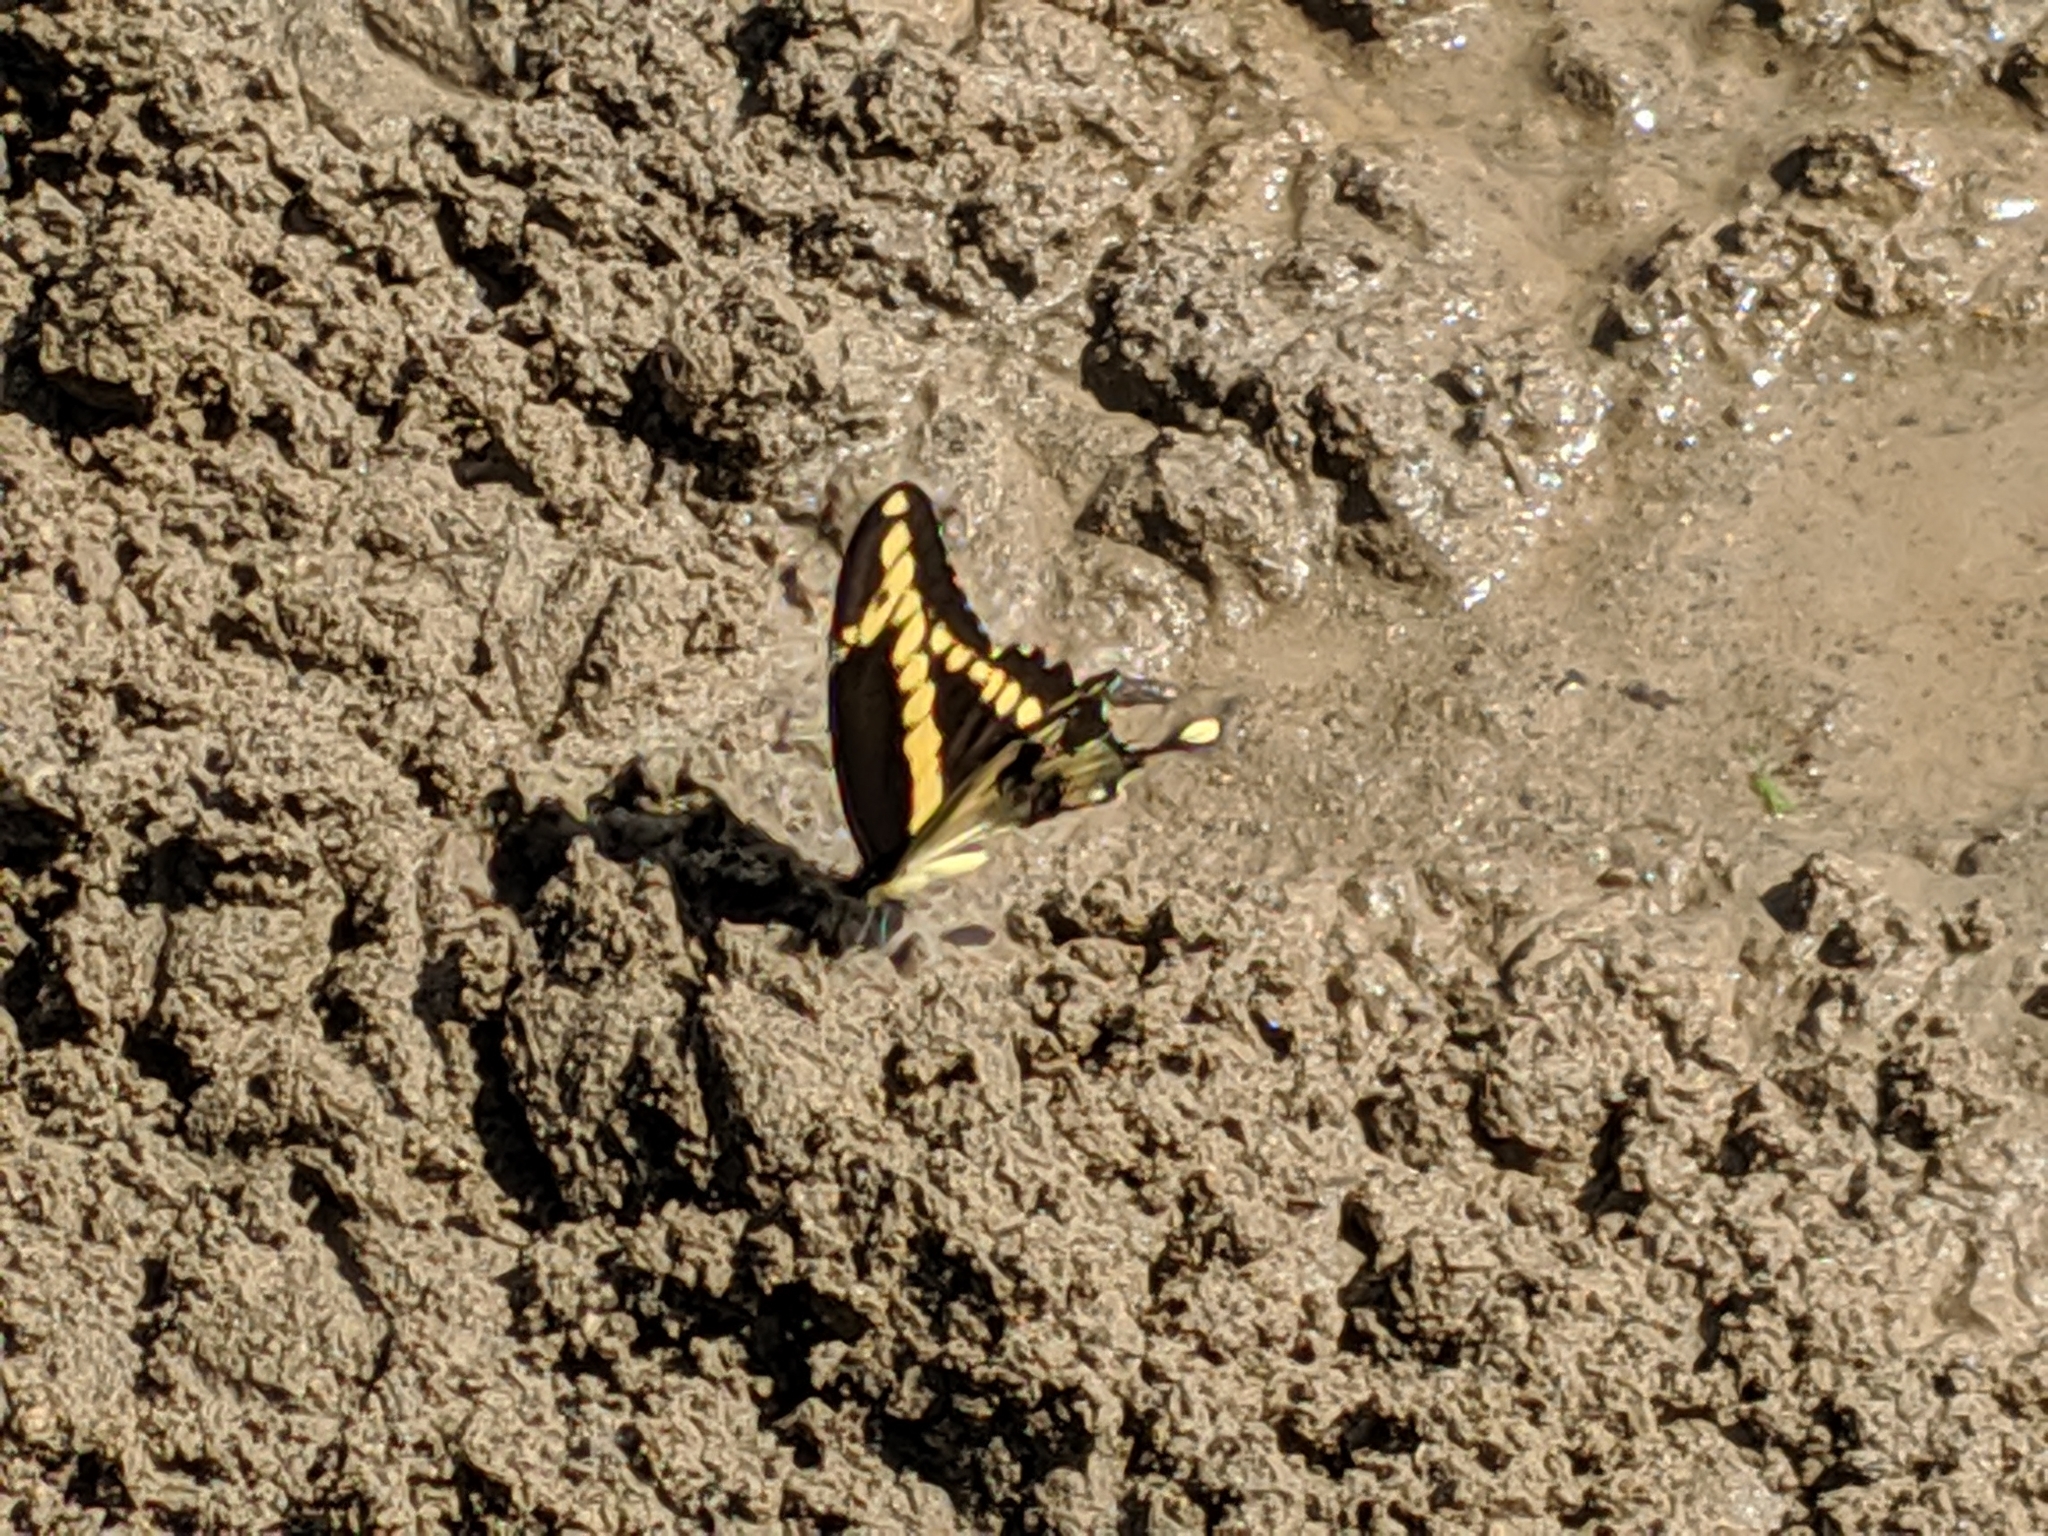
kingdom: Animalia
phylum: Arthropoda
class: Insecta
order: Lepidoptera
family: Papilionidae
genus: Papilio
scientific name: Papilio cresphontes
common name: Giant swallowtail
